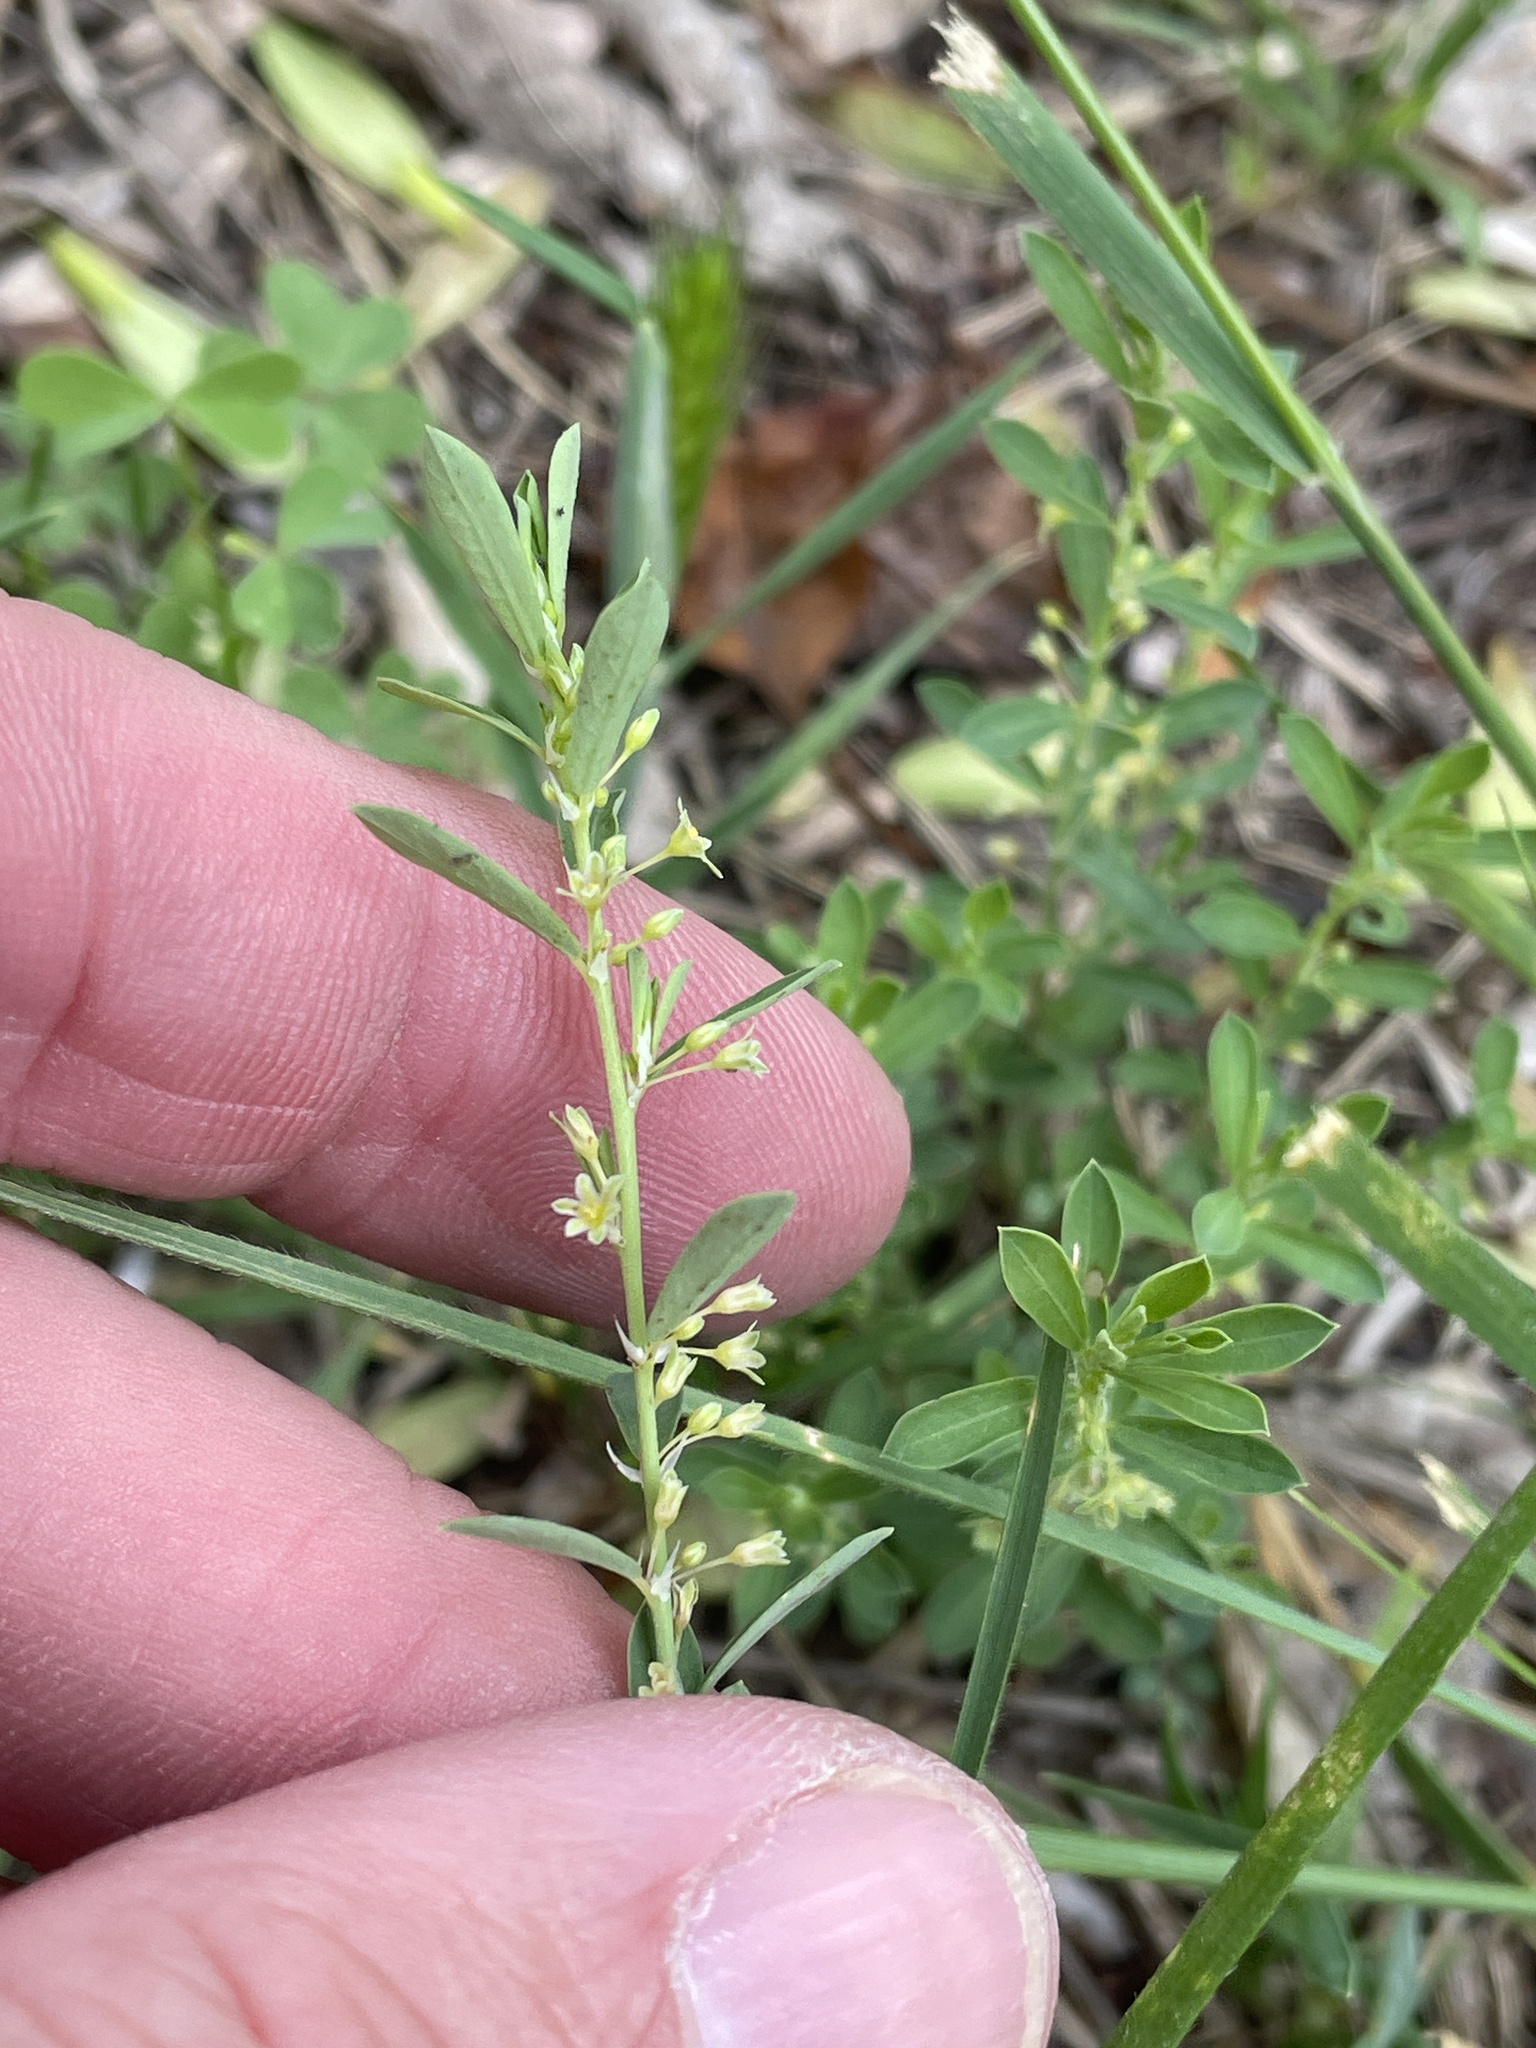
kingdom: Plantae
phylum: Tracheophyta
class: Magnoliopsida
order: Malpighiales
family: Phyllanthaceae
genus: Phyllanthus
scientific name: Phyllanthus polygonoides
